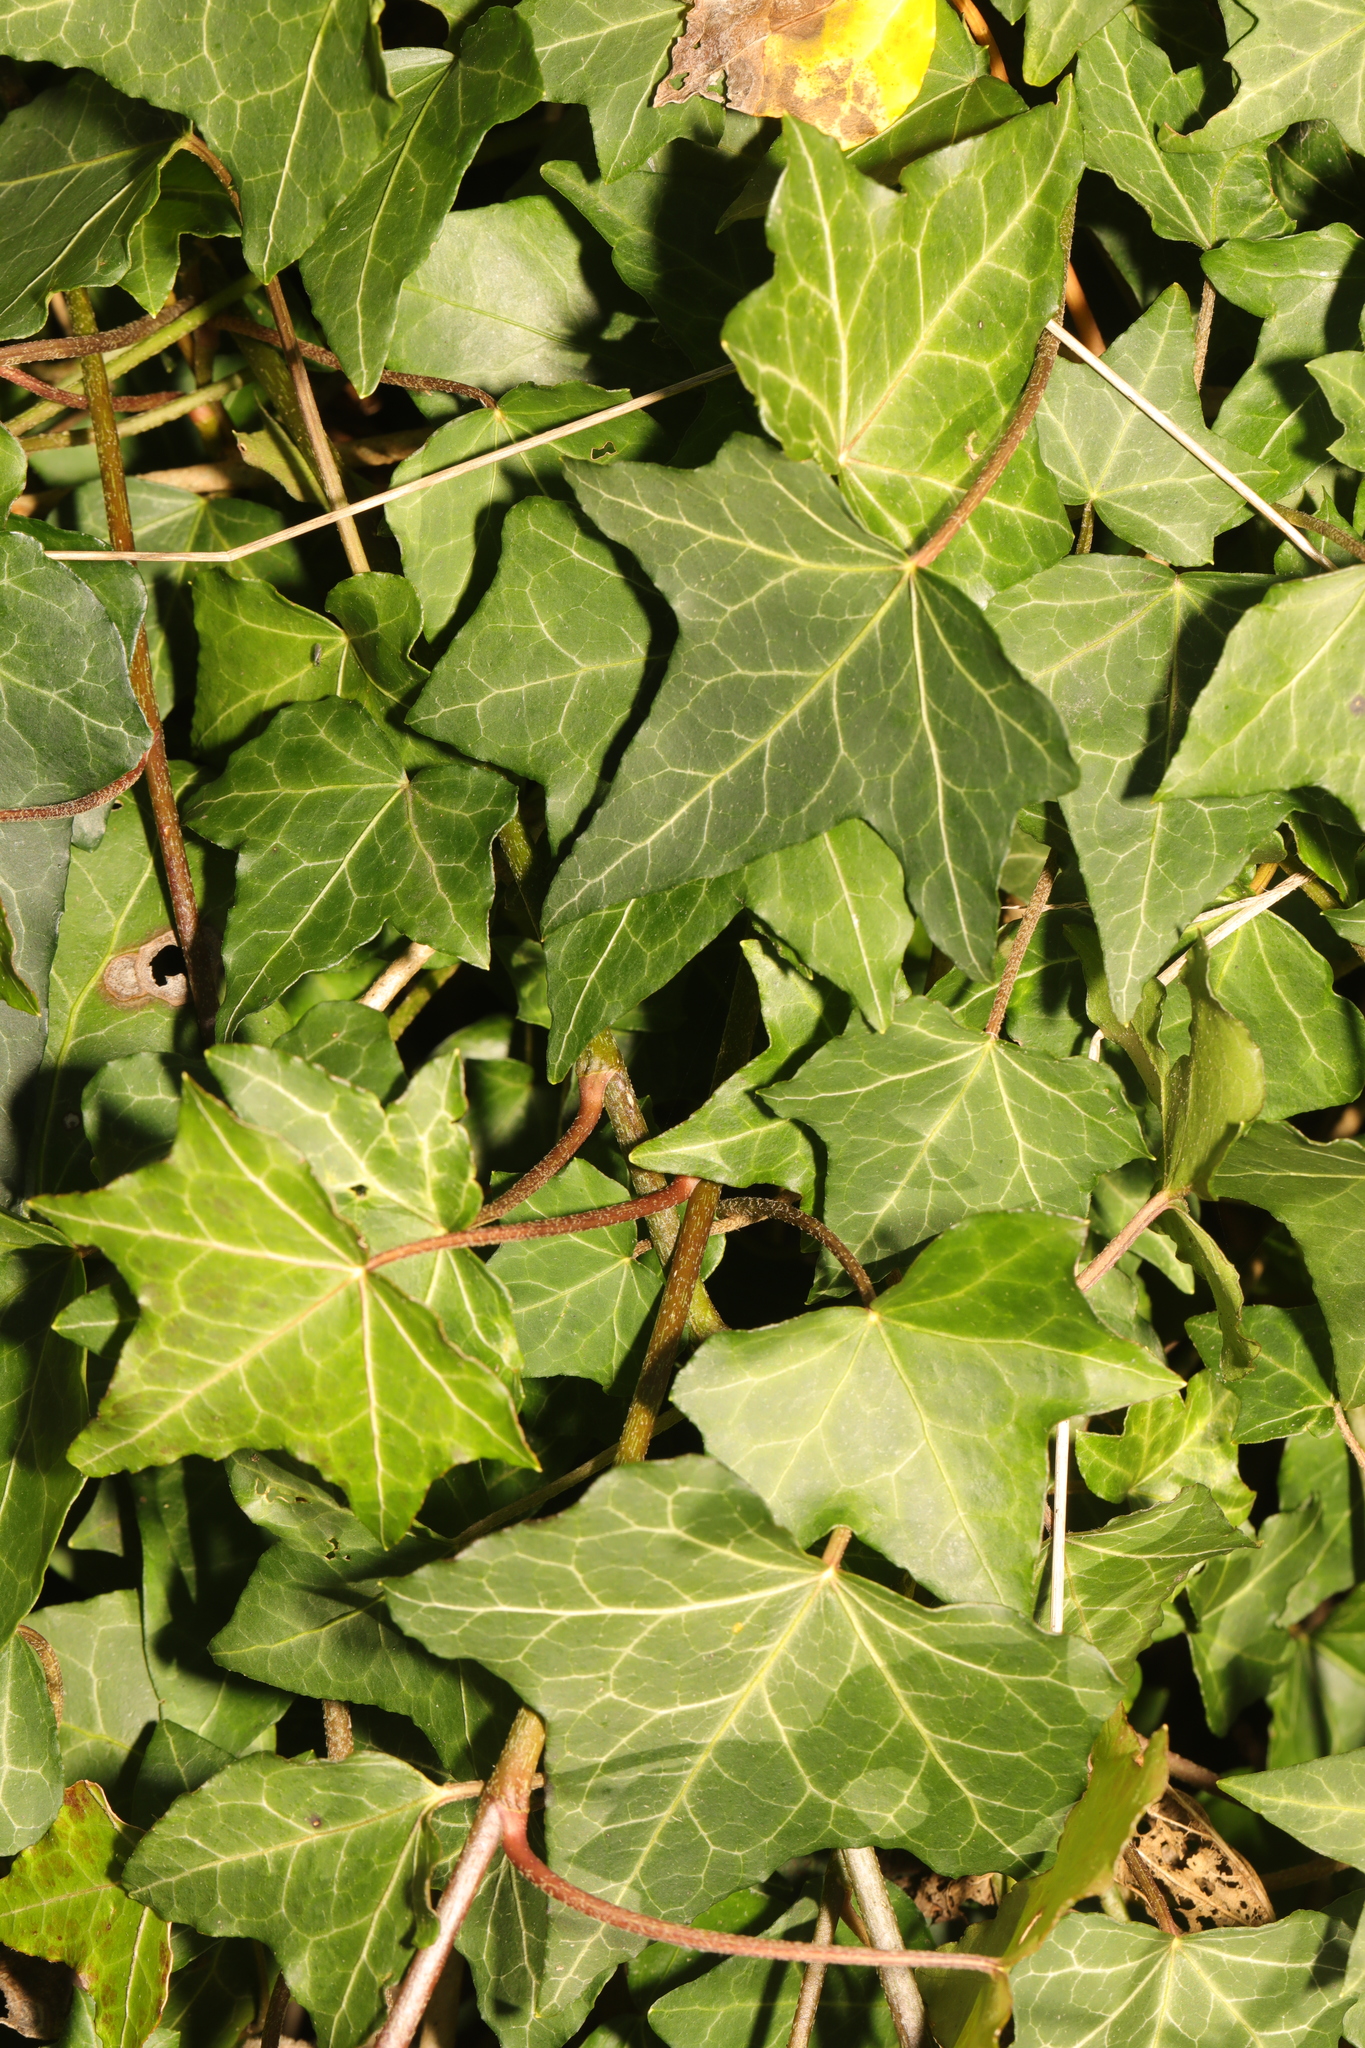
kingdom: Plantae
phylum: Tracheophyta
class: Magnoliopsida
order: Apiales
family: Araliaceae
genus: Hedera
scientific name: Hedera helix
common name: Ivy
